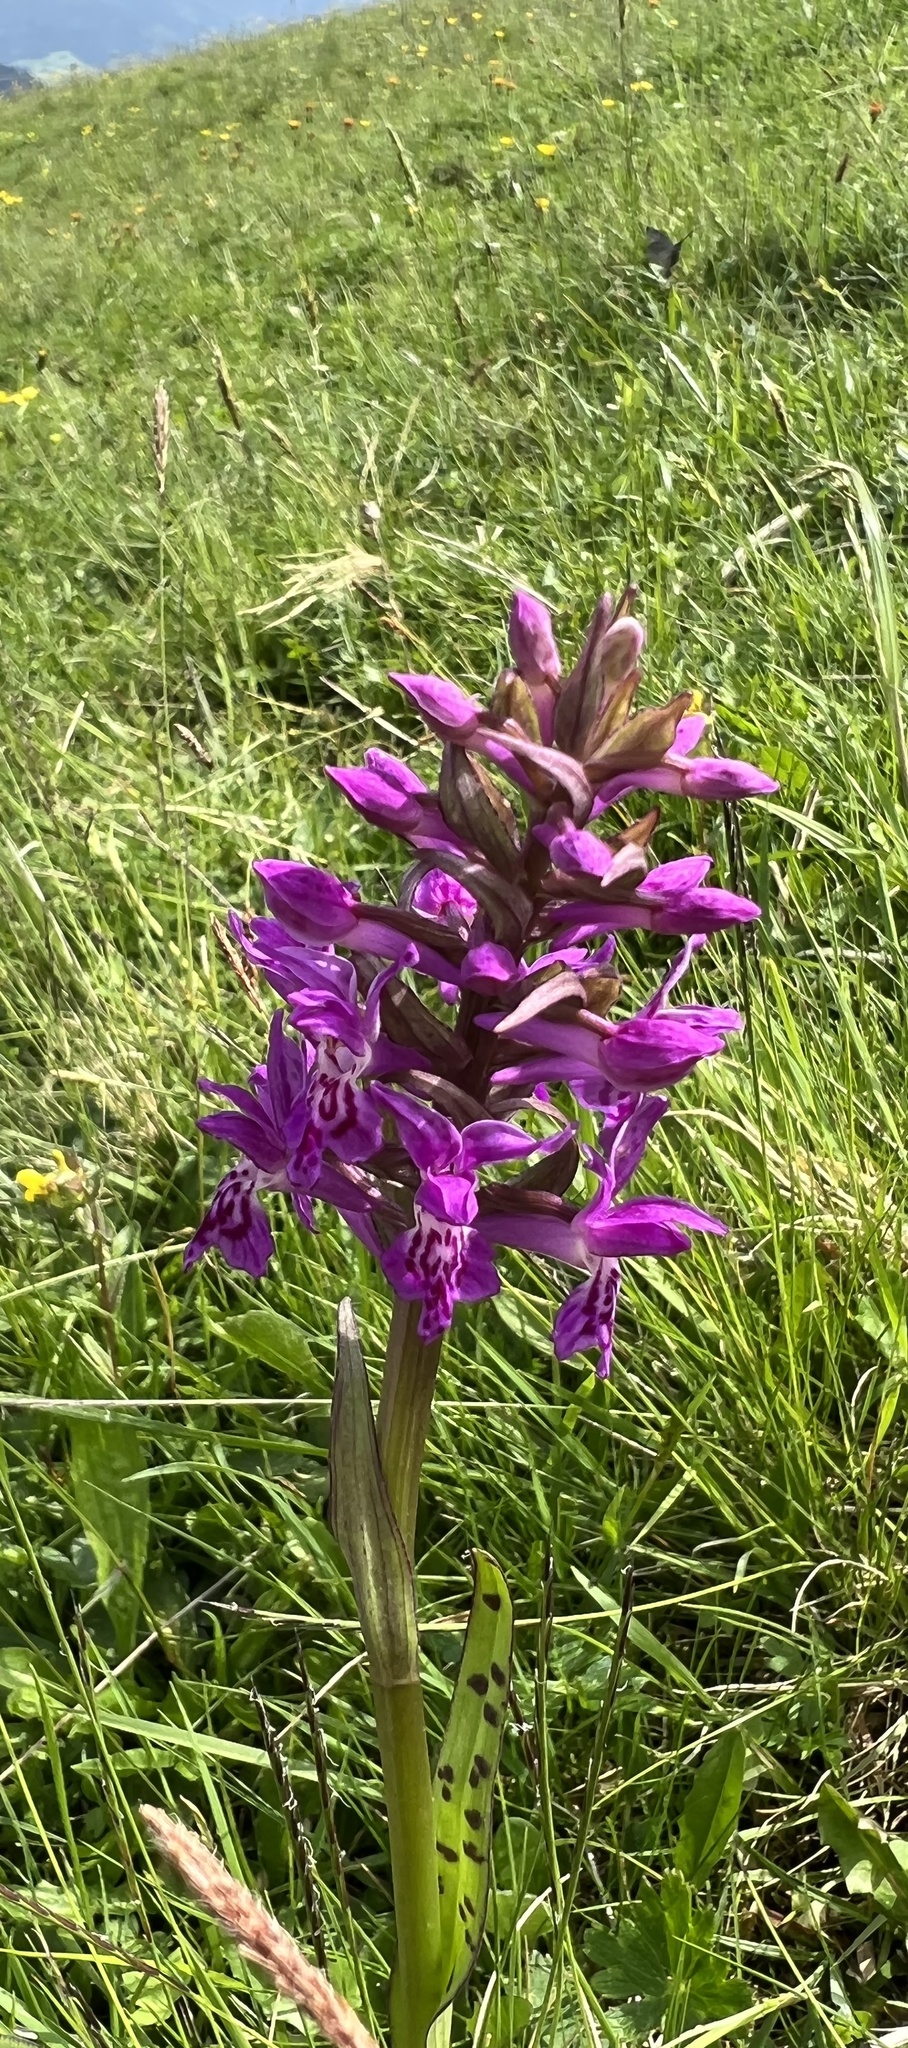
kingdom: Plantae
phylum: Tracheophyta
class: Liliopsida
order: Asparagales
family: Orchidaceae
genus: Dactylorhiza
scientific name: Dactylorhiza majalis
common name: Marsh orchid
